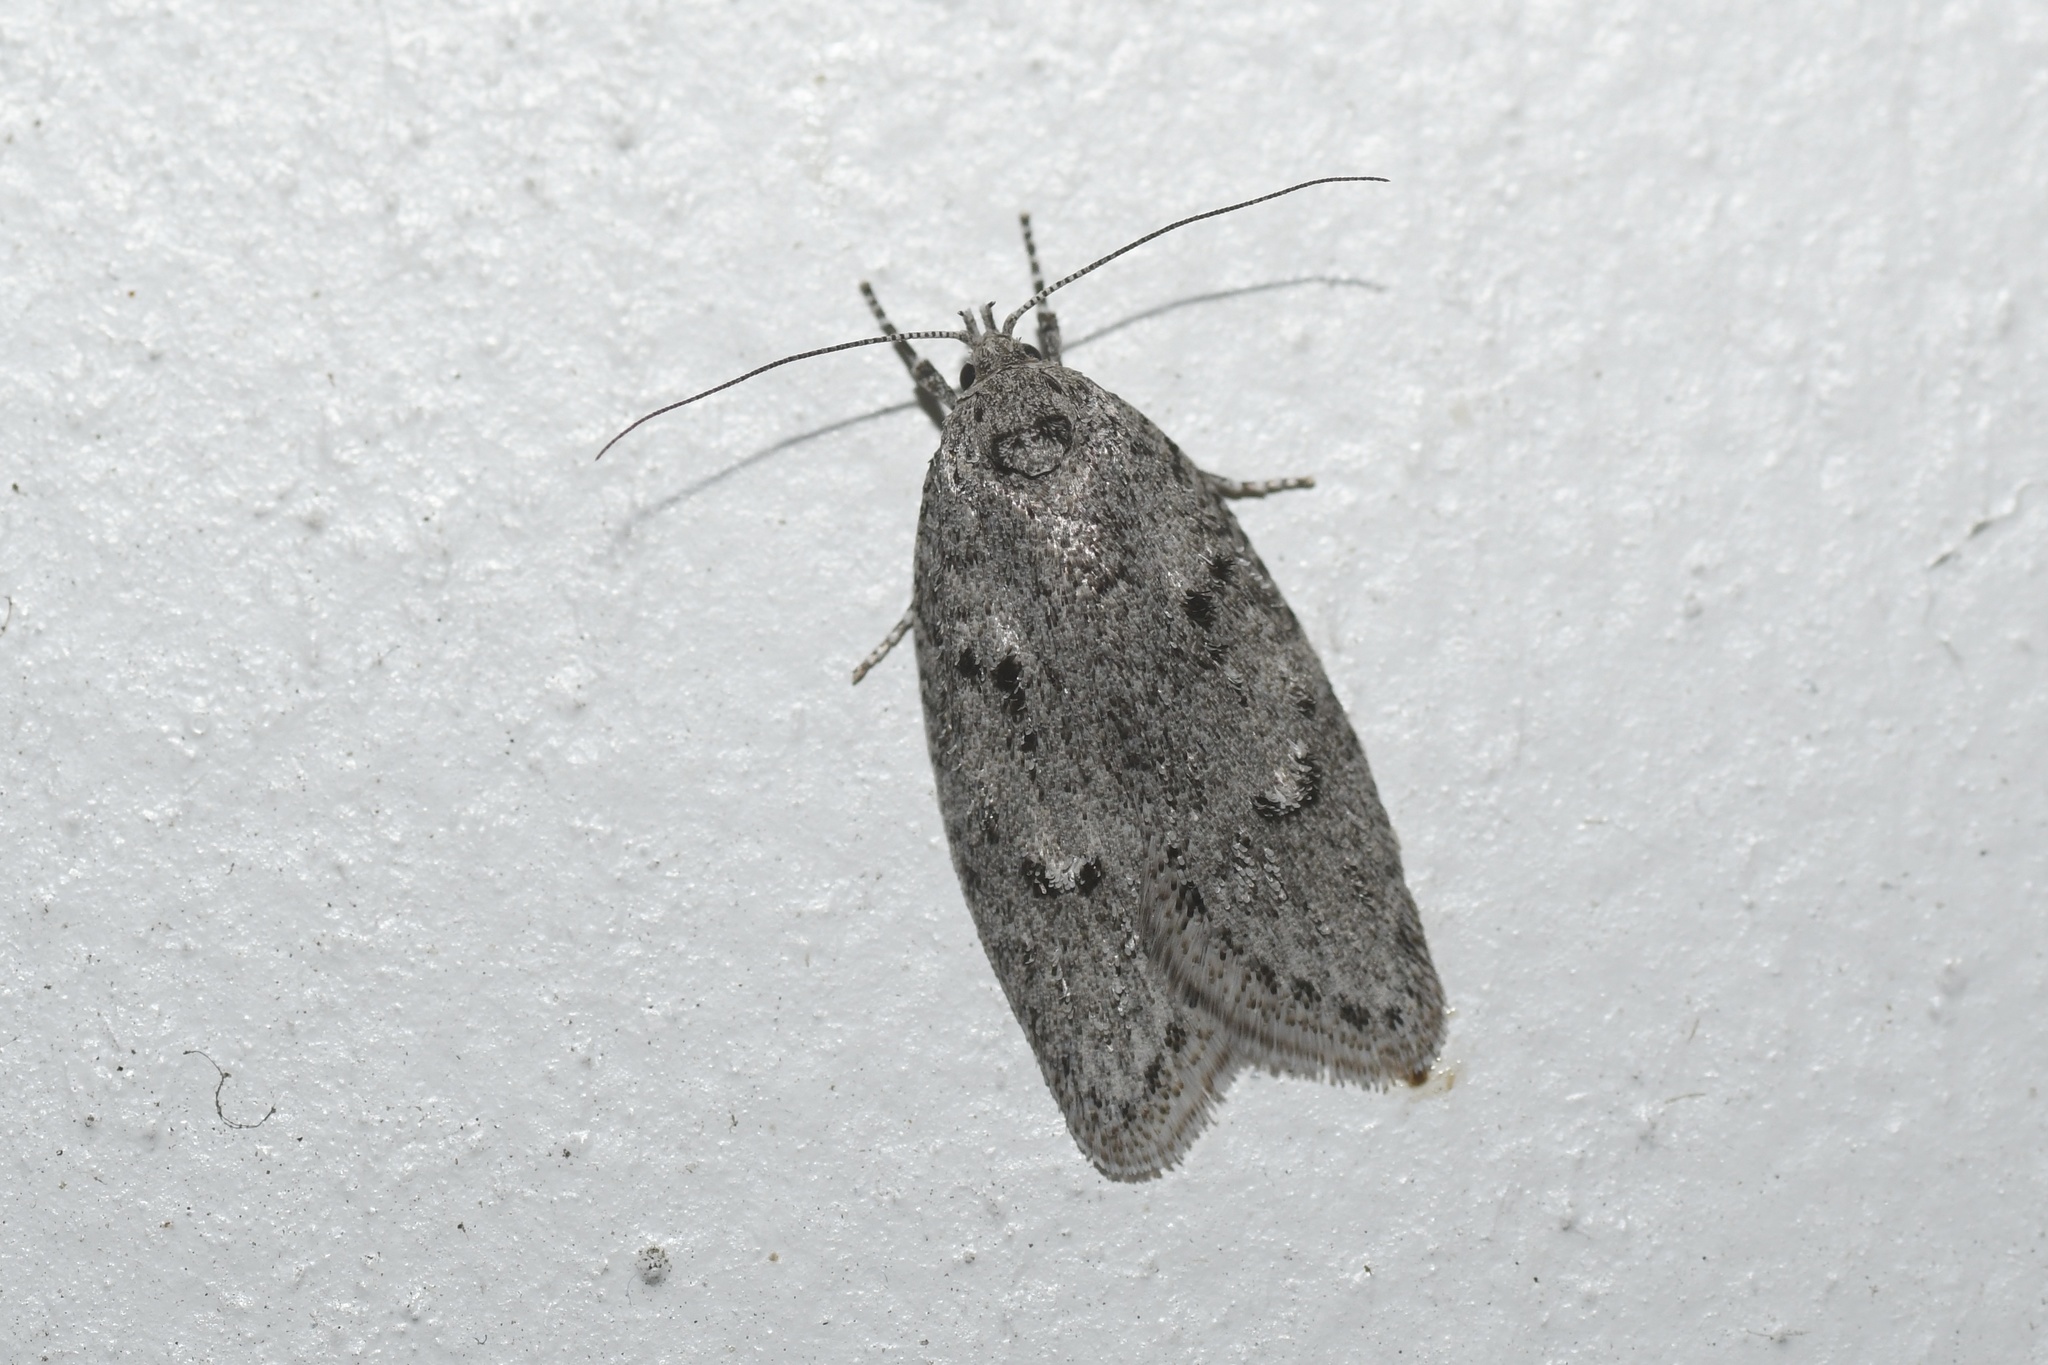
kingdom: Animalia
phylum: Arthropoda
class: Insecta
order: Lepidoptera
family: Depressariidae
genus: Semioscopis
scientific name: Semioscopis inornata
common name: Poplar micromoth
